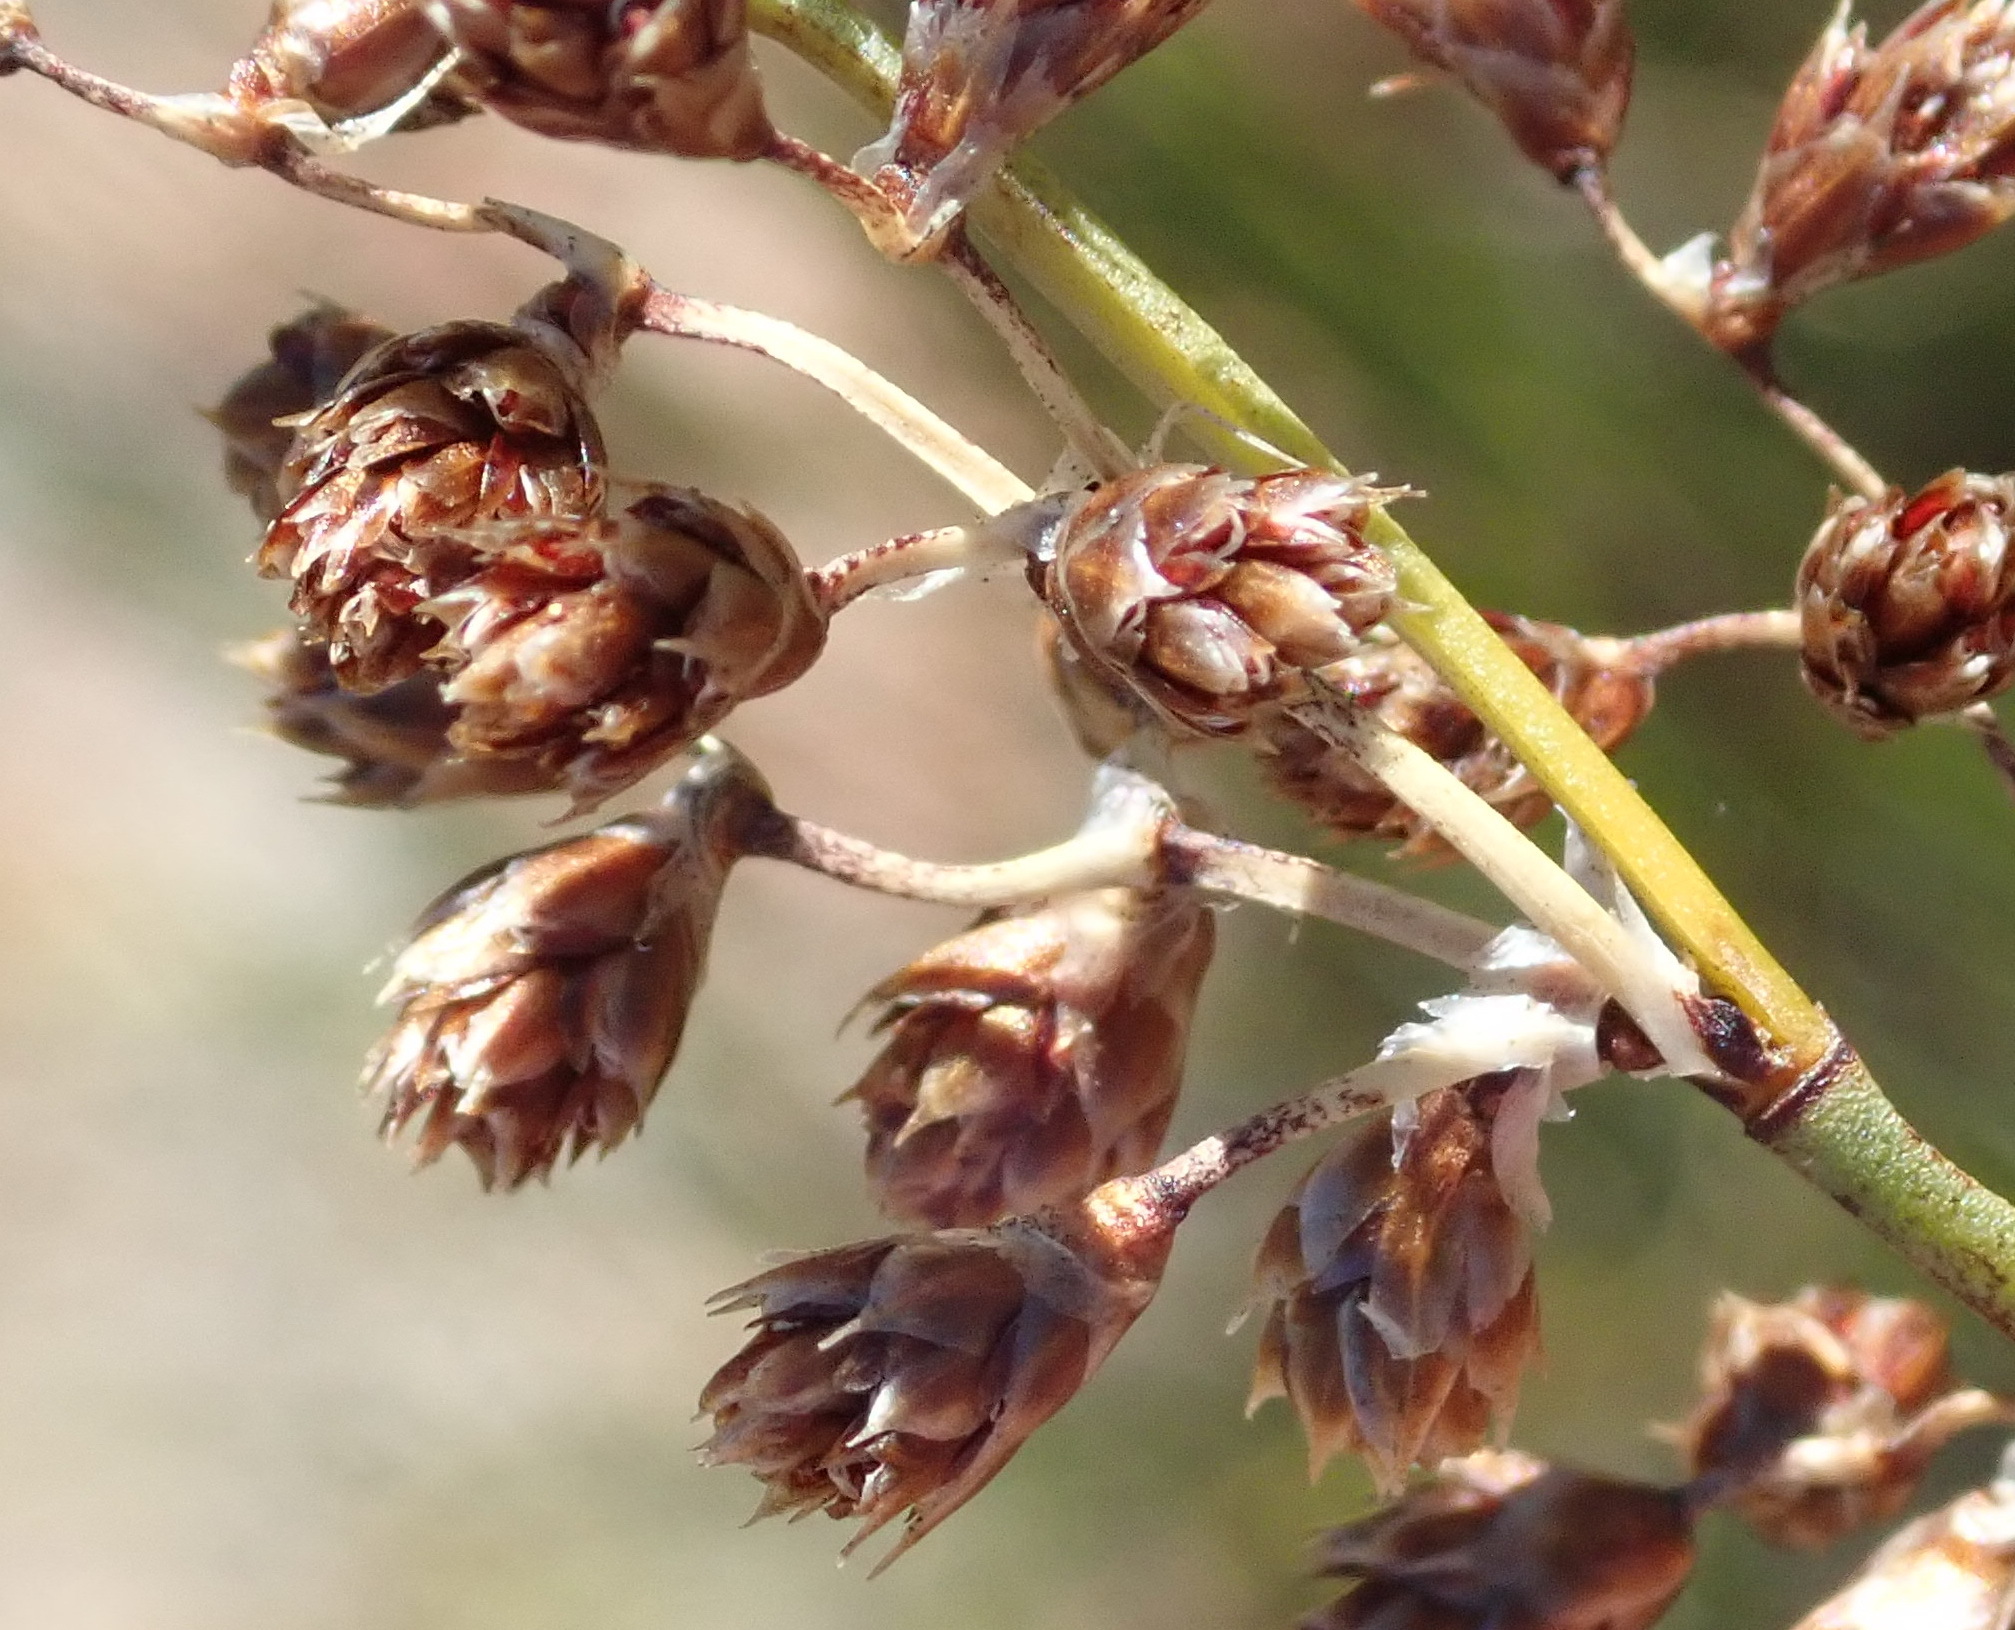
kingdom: Plantae
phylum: Tracheophyta
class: Liliopsida
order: Poales
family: Restionaceae
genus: Cannomois
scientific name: Cannomois scirpoides
